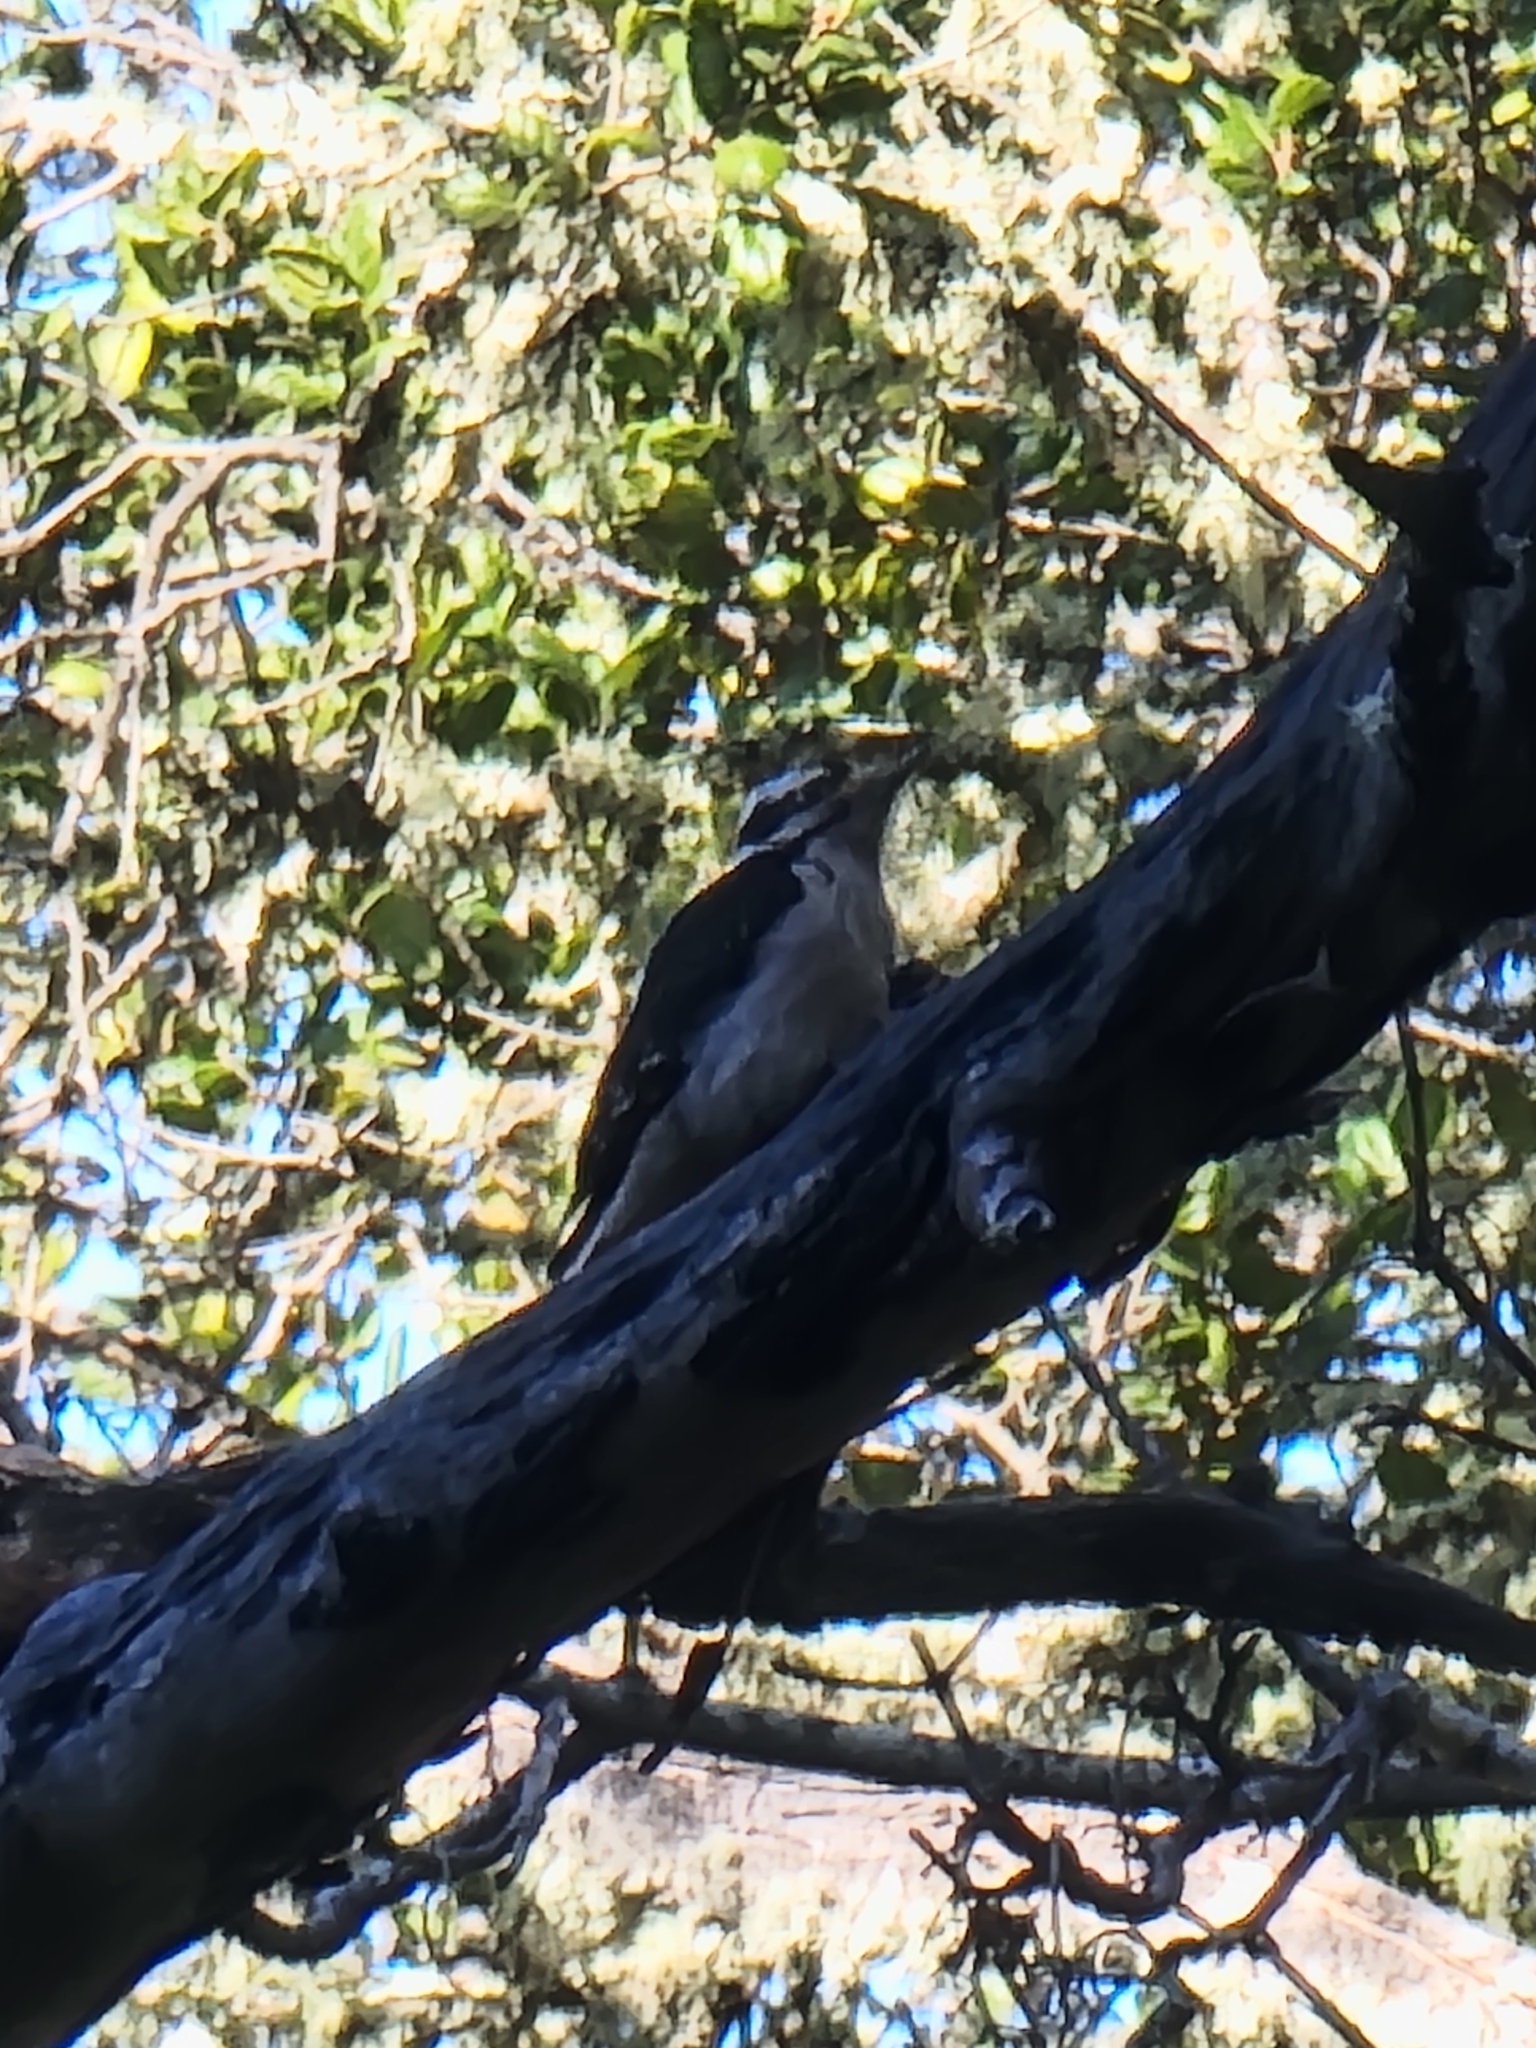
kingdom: Animalia
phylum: Chordata
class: Aves
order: Piciformes
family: Picidae
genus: Leuconotopicus
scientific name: Leuconotopicus villosus
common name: Hairy woodpecker
